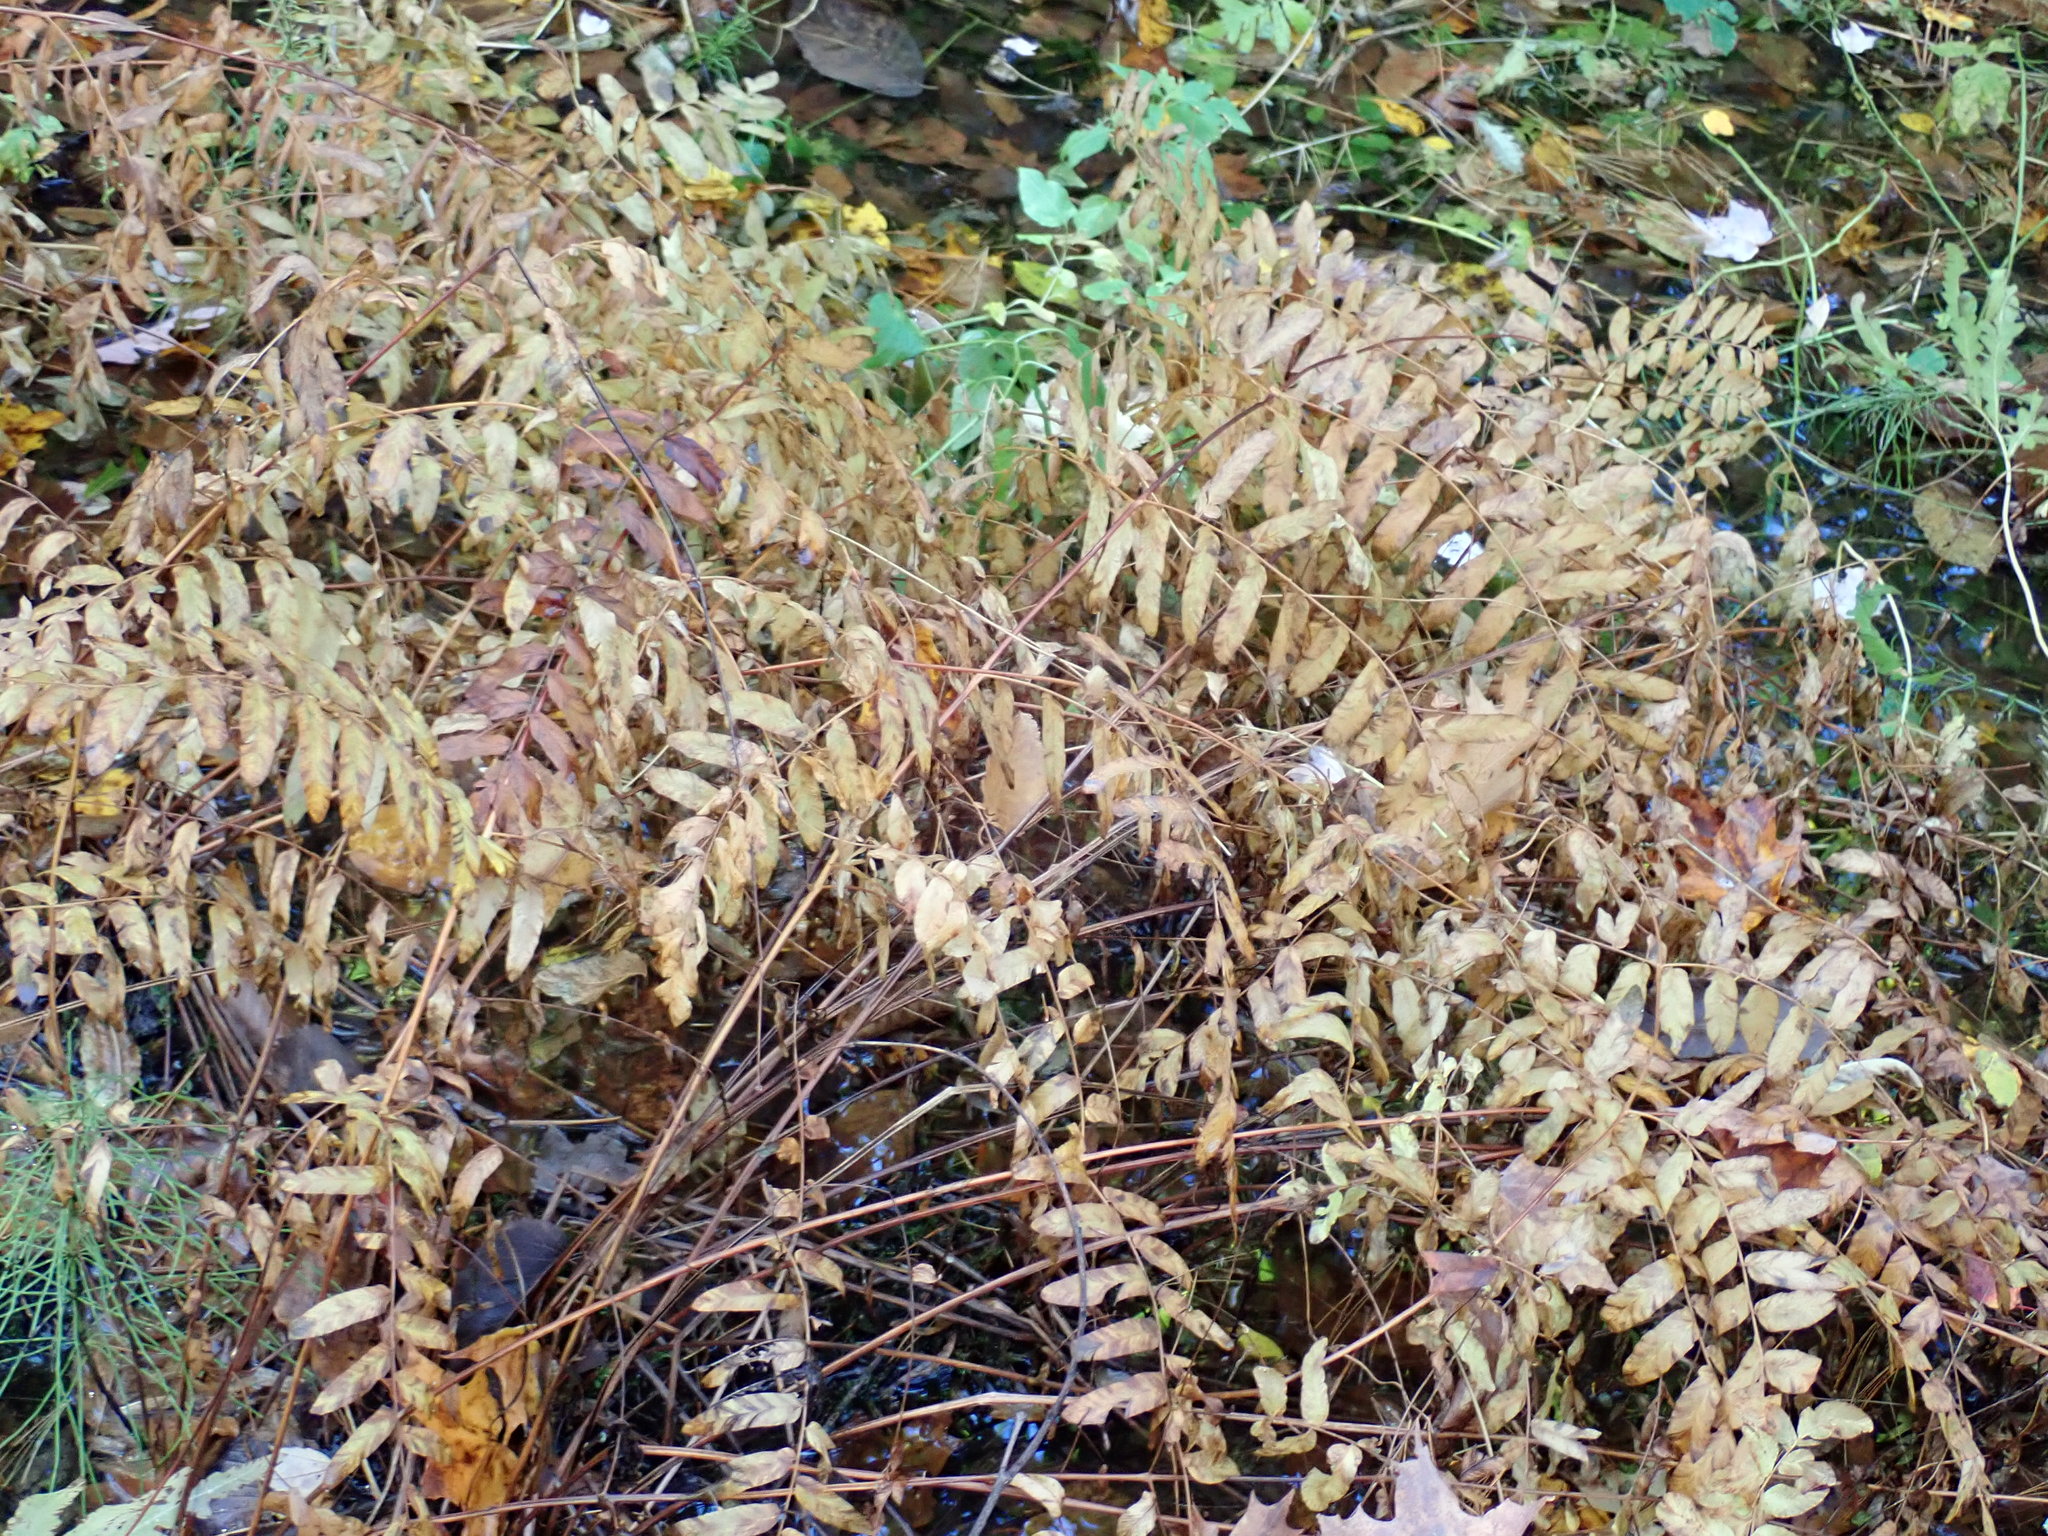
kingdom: Plantae
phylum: Tracheophyta
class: Polypodiopsida
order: Osmundales
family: Osmundaceae
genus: Osmunda
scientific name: Osmunda spectabilis
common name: American royal fern
